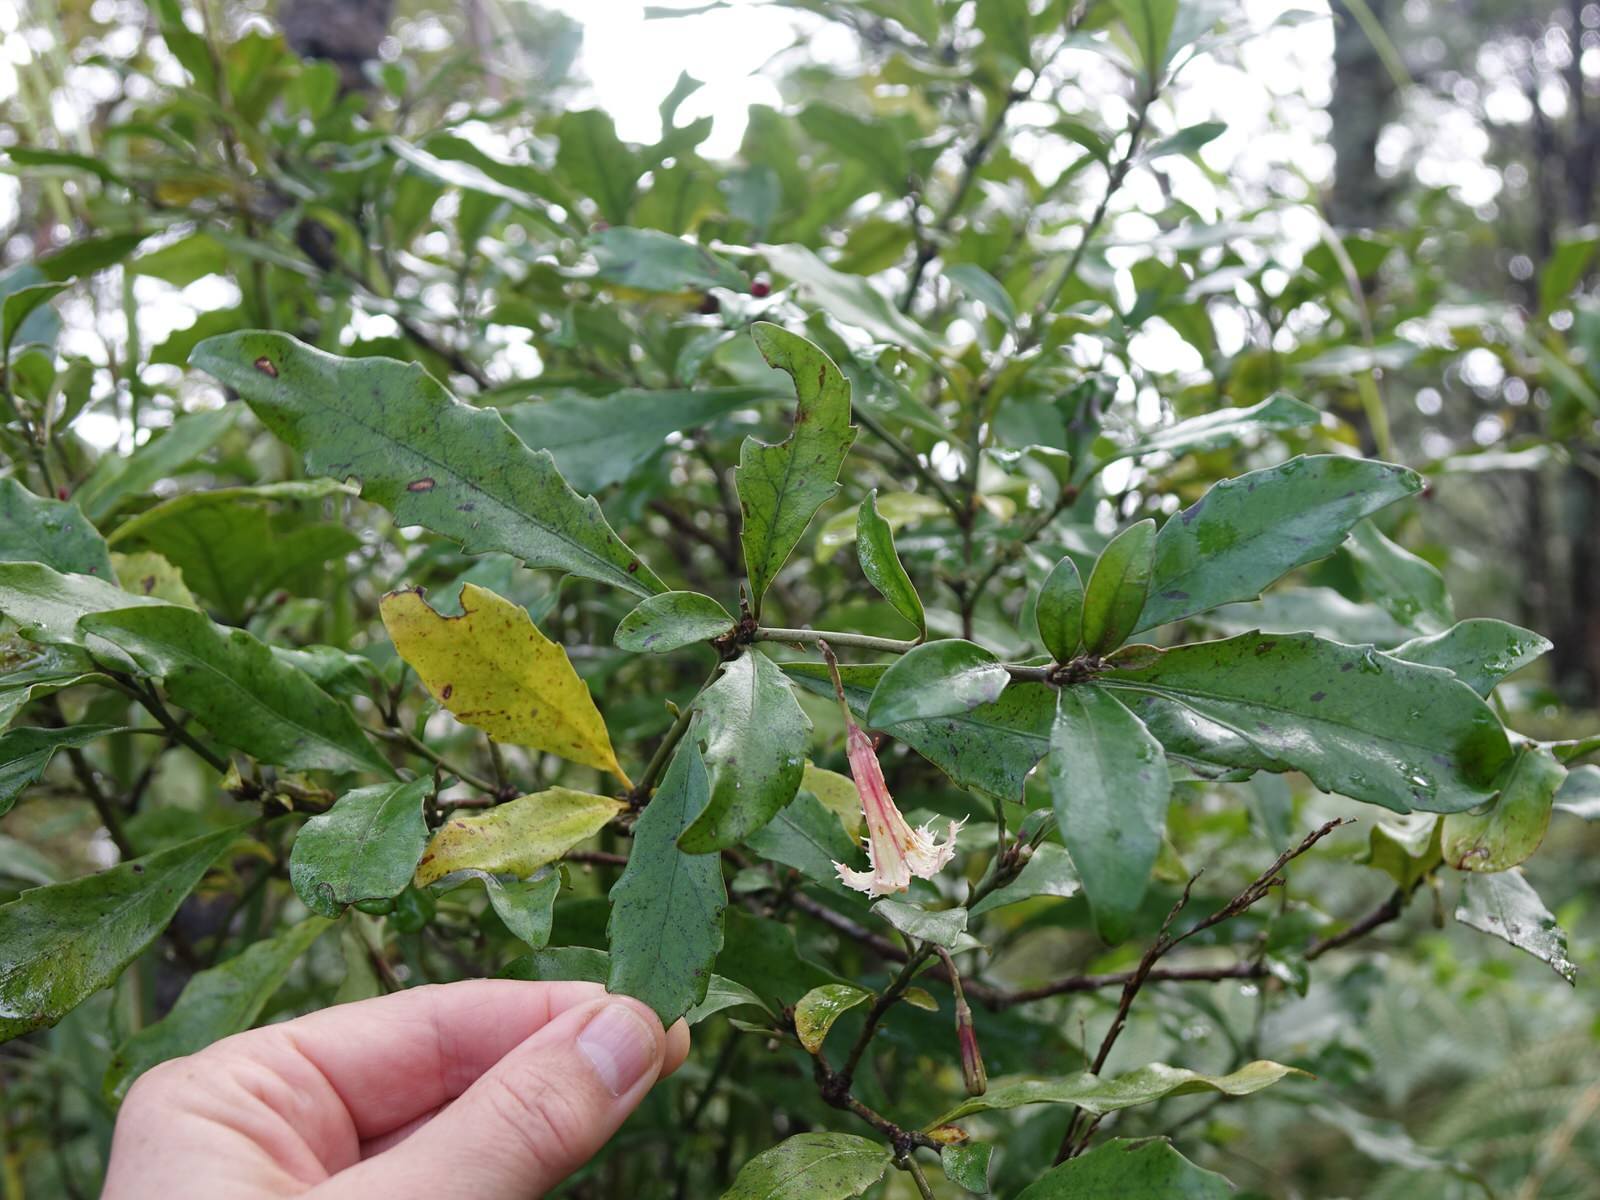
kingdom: Plantae
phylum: Tracheophyta
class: Magnoliopsida
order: Asterales
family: Alseuosmiaceae
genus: Alseuosmia
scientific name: Alseuosmia macrophylla
